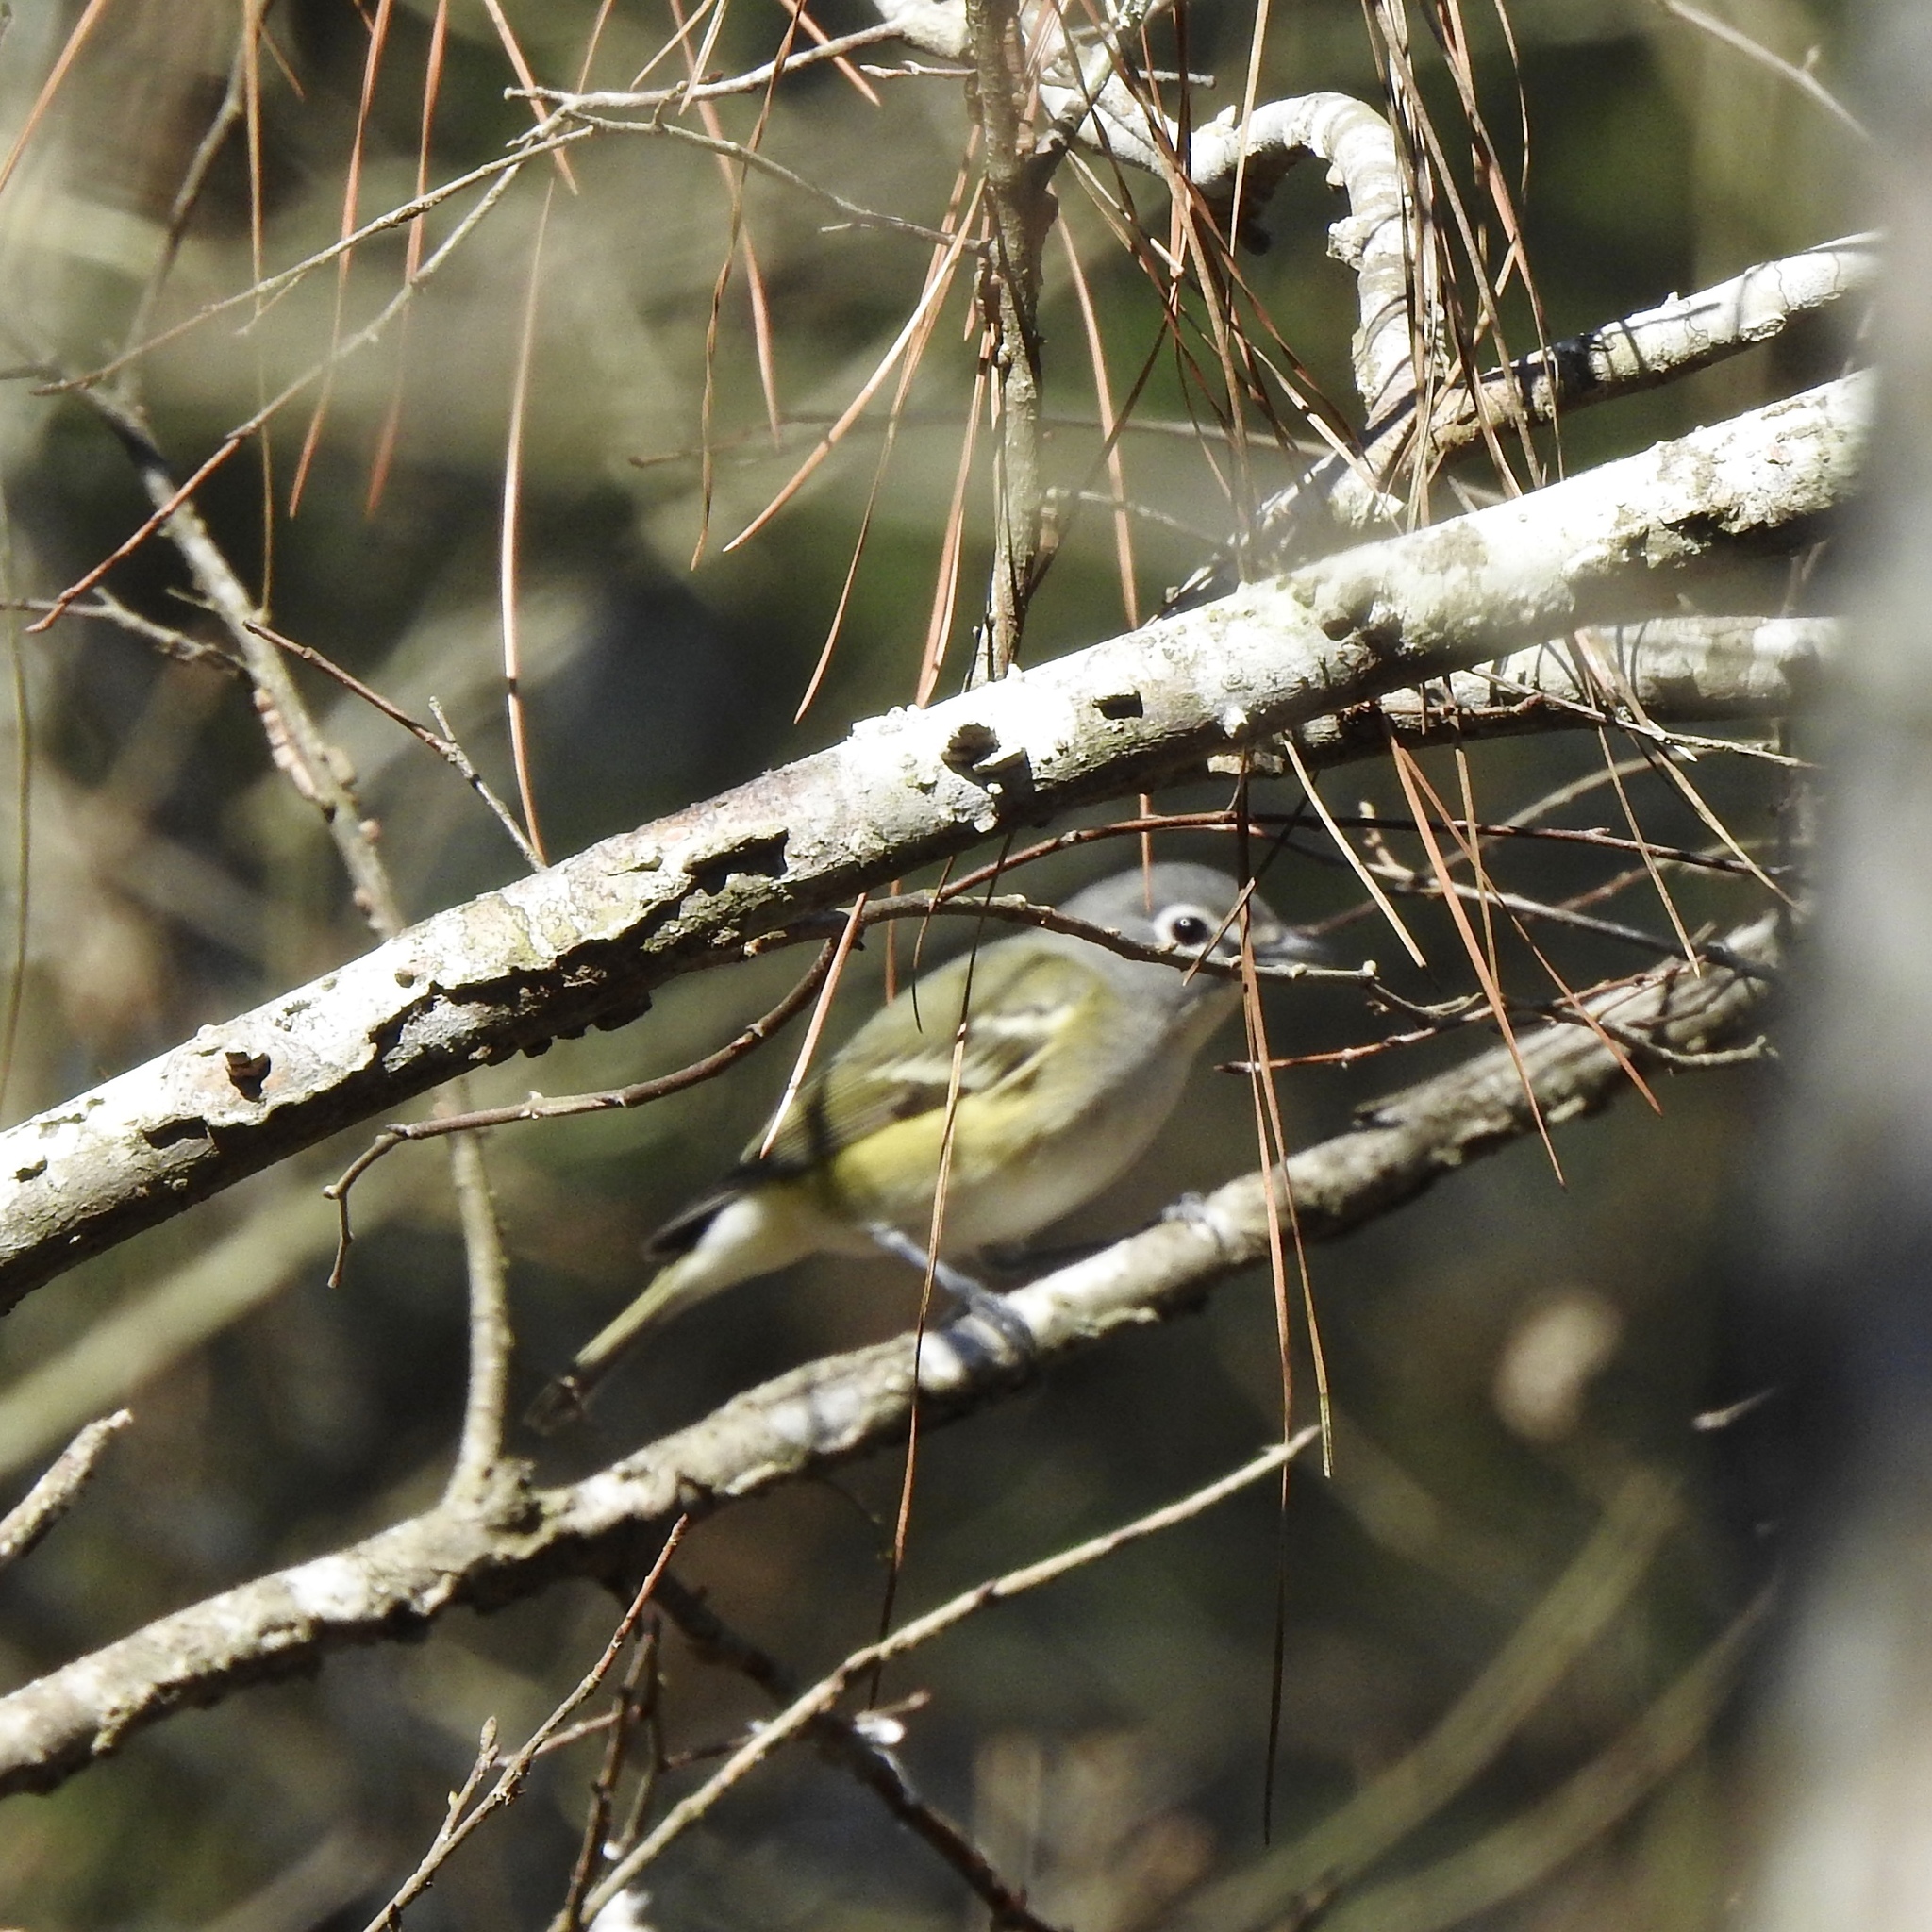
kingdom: Animalia
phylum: Chordata
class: Aves
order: Passeriformes
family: Vireonidae
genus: Vireo
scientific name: Vireo solitarius
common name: Blue-headed vireo
